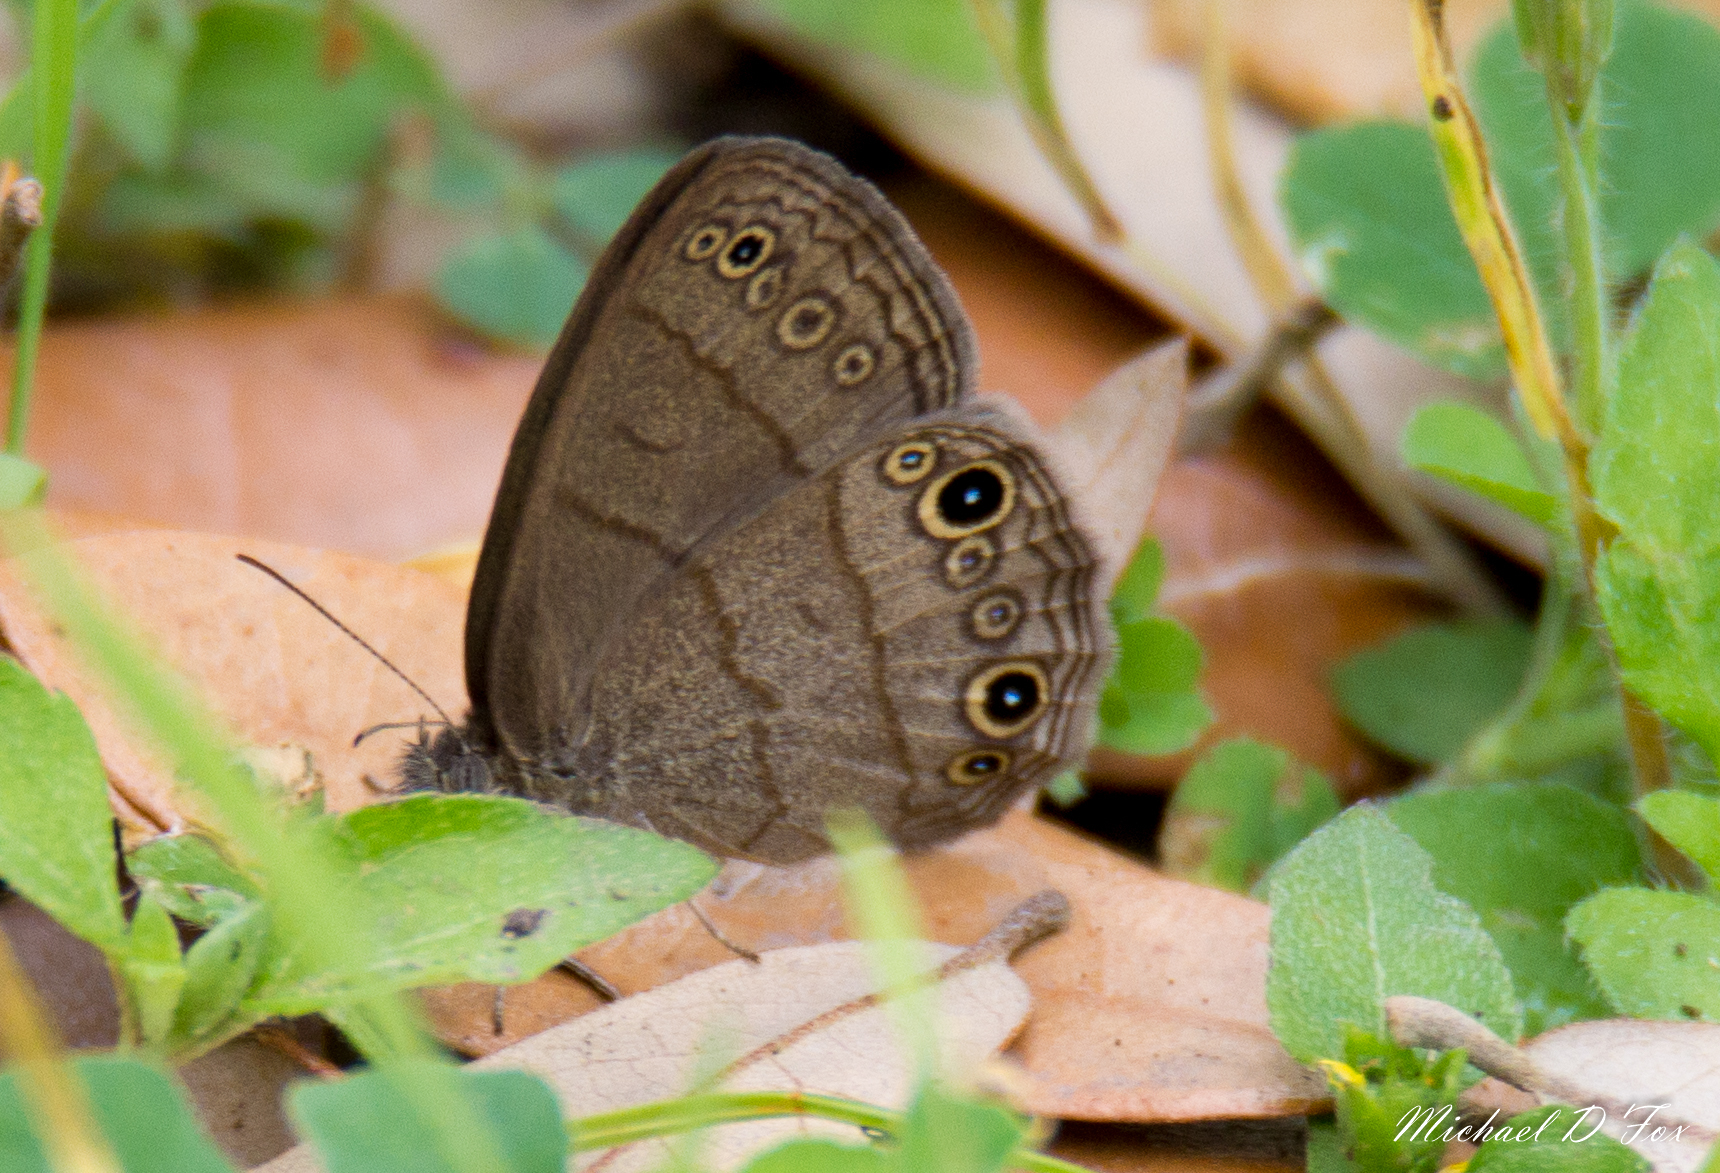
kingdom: Animalia
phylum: Arthropoda
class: Insecta
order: Lepidoptera
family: Nymphalidae
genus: Hermeuptychia
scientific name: Hermeuptychia hermes
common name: Hermes satyr
